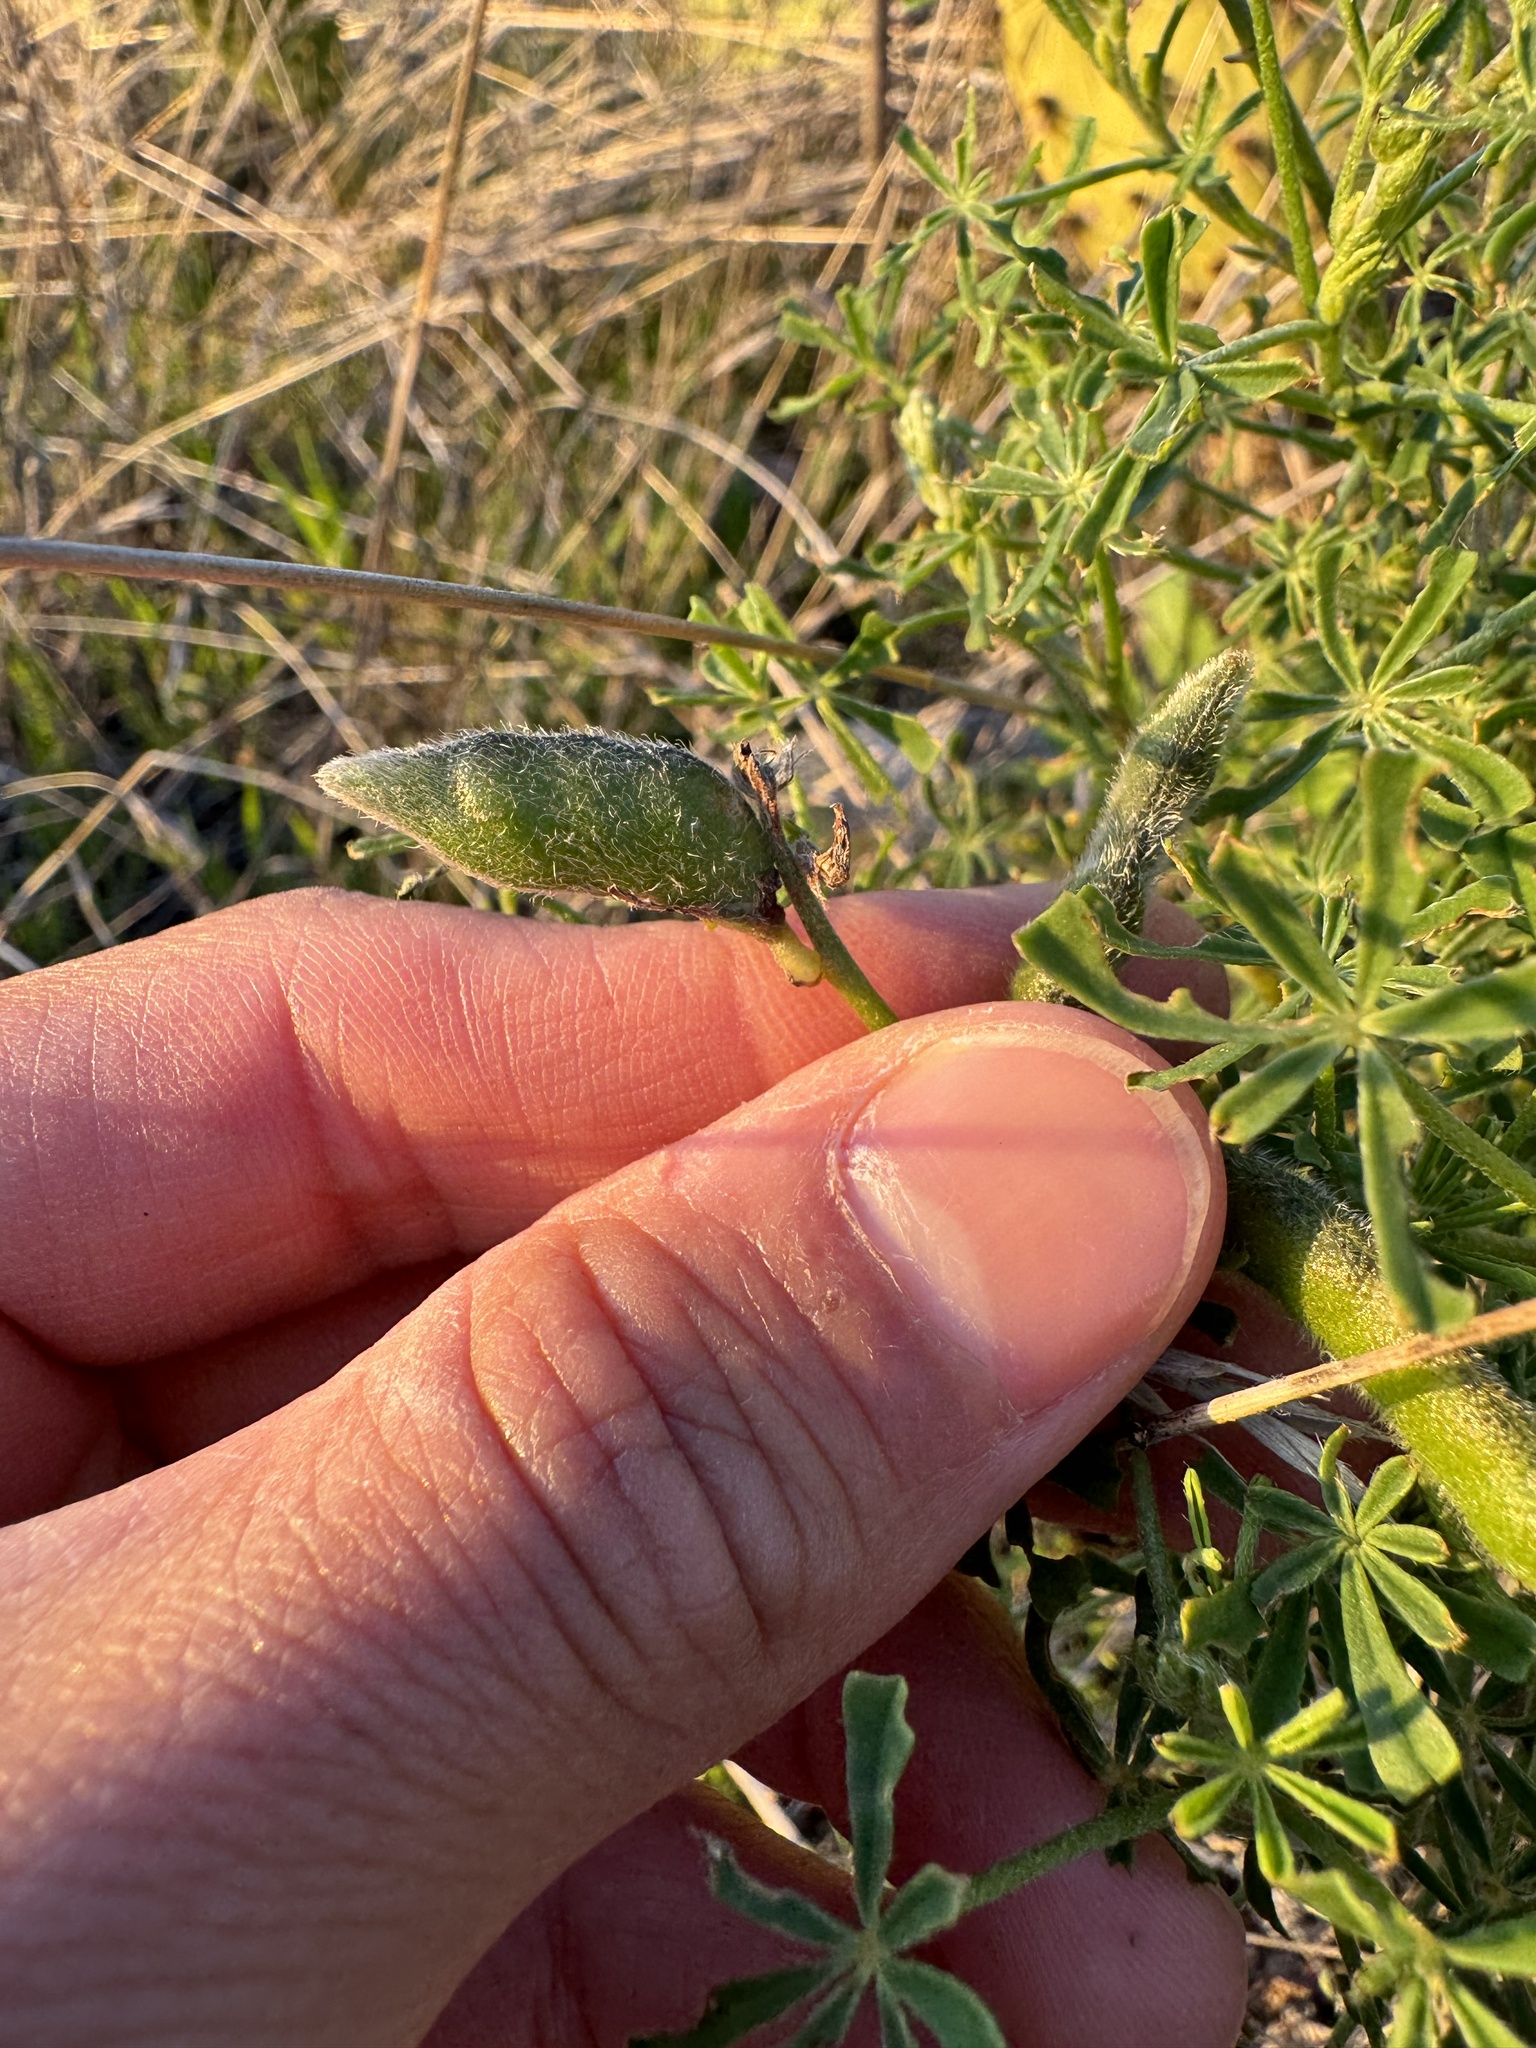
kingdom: Plantae
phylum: Tracheophyta
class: Magnoliopsida
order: Fabales
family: Fabaceae
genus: Lupinus
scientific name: Lupinus truncatus
